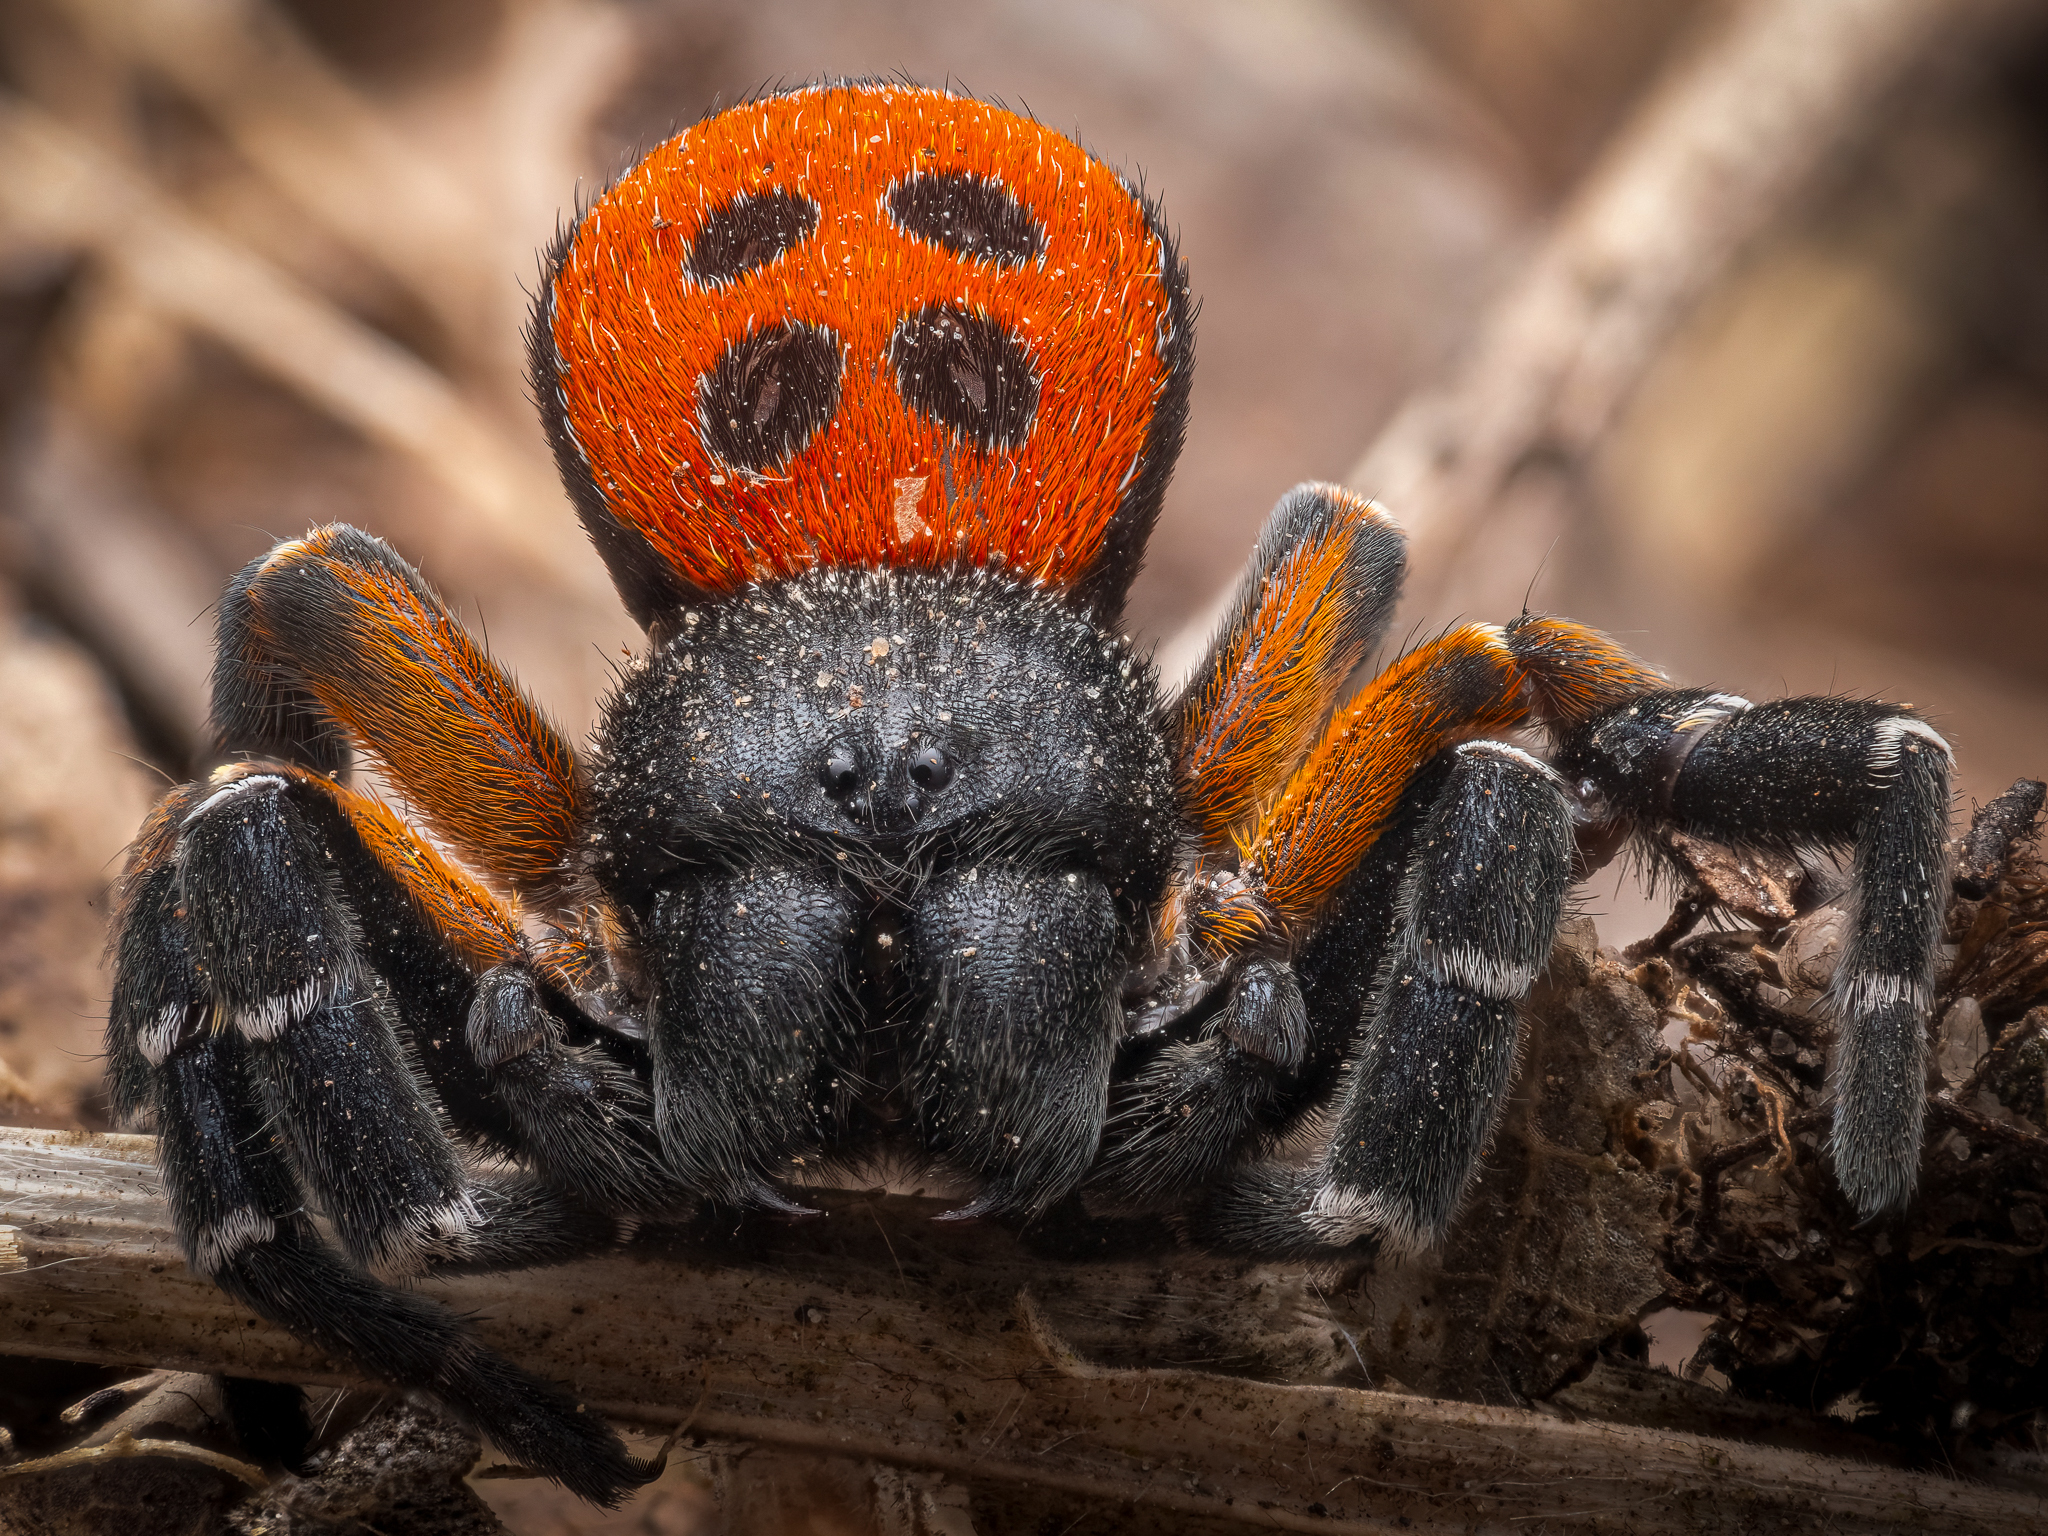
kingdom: Animalia
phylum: Arthropoda
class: Arachnida
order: Araneae
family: Eresidae
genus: Eresus
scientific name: Eresus kollari
